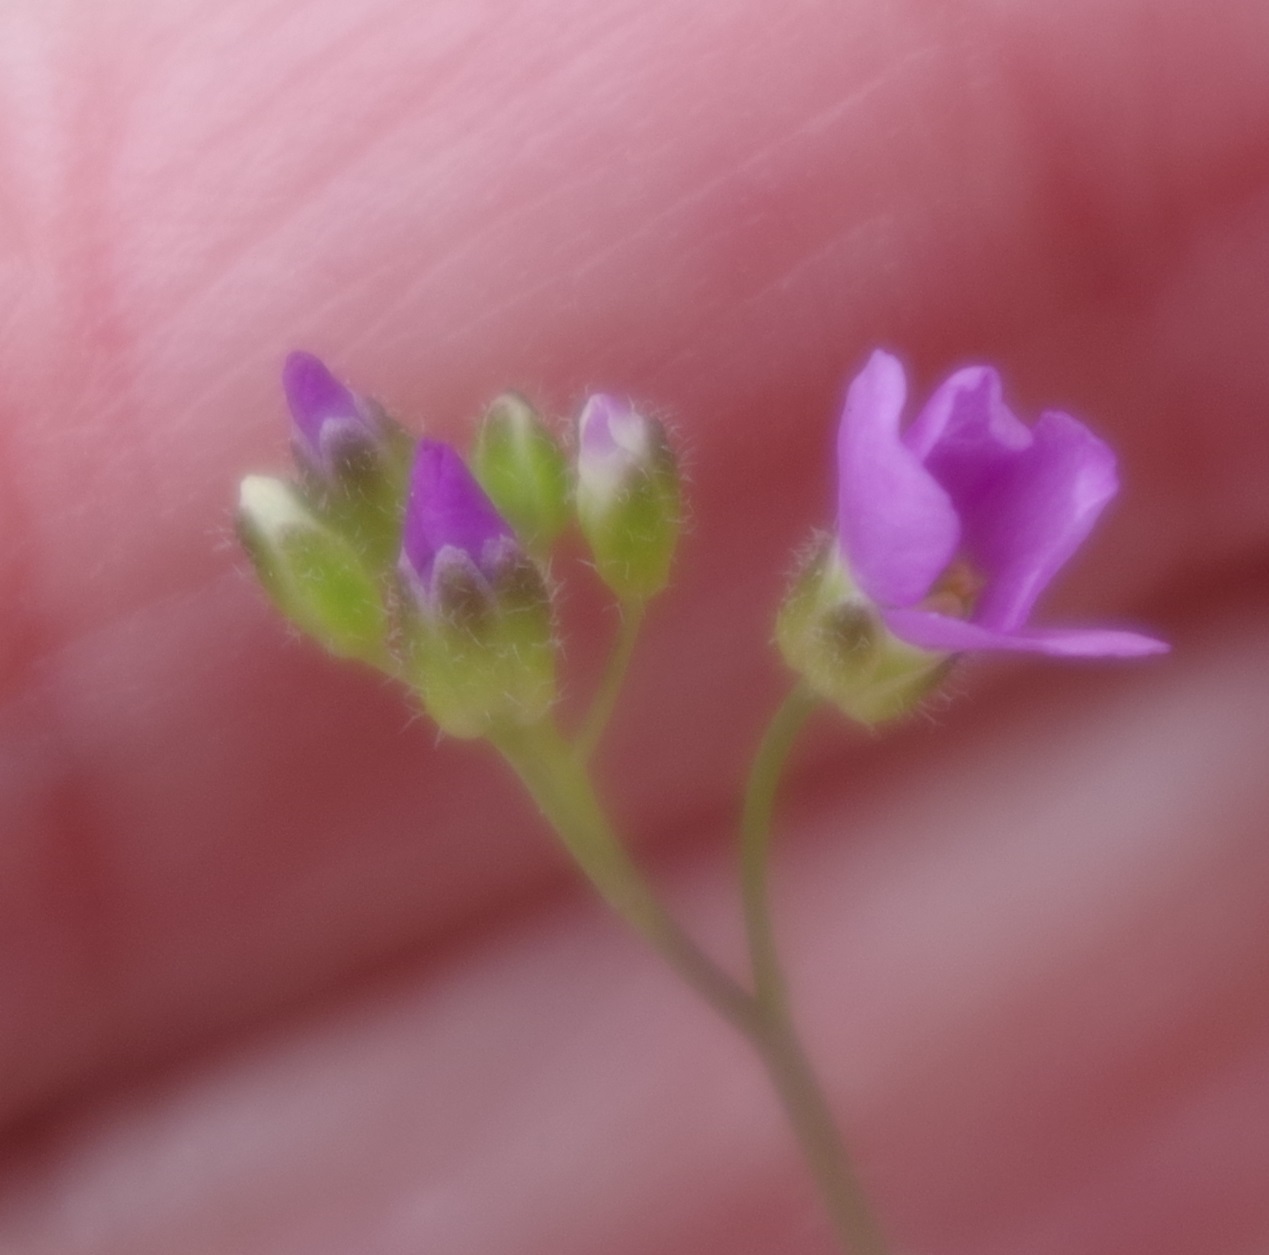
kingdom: Plantae
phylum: Tracheophyta
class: Magnoliopsida
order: Brassicales
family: Brassicaceae
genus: Arabidopsis
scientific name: Arabidopsis arenosa
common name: Sand rock-cress
